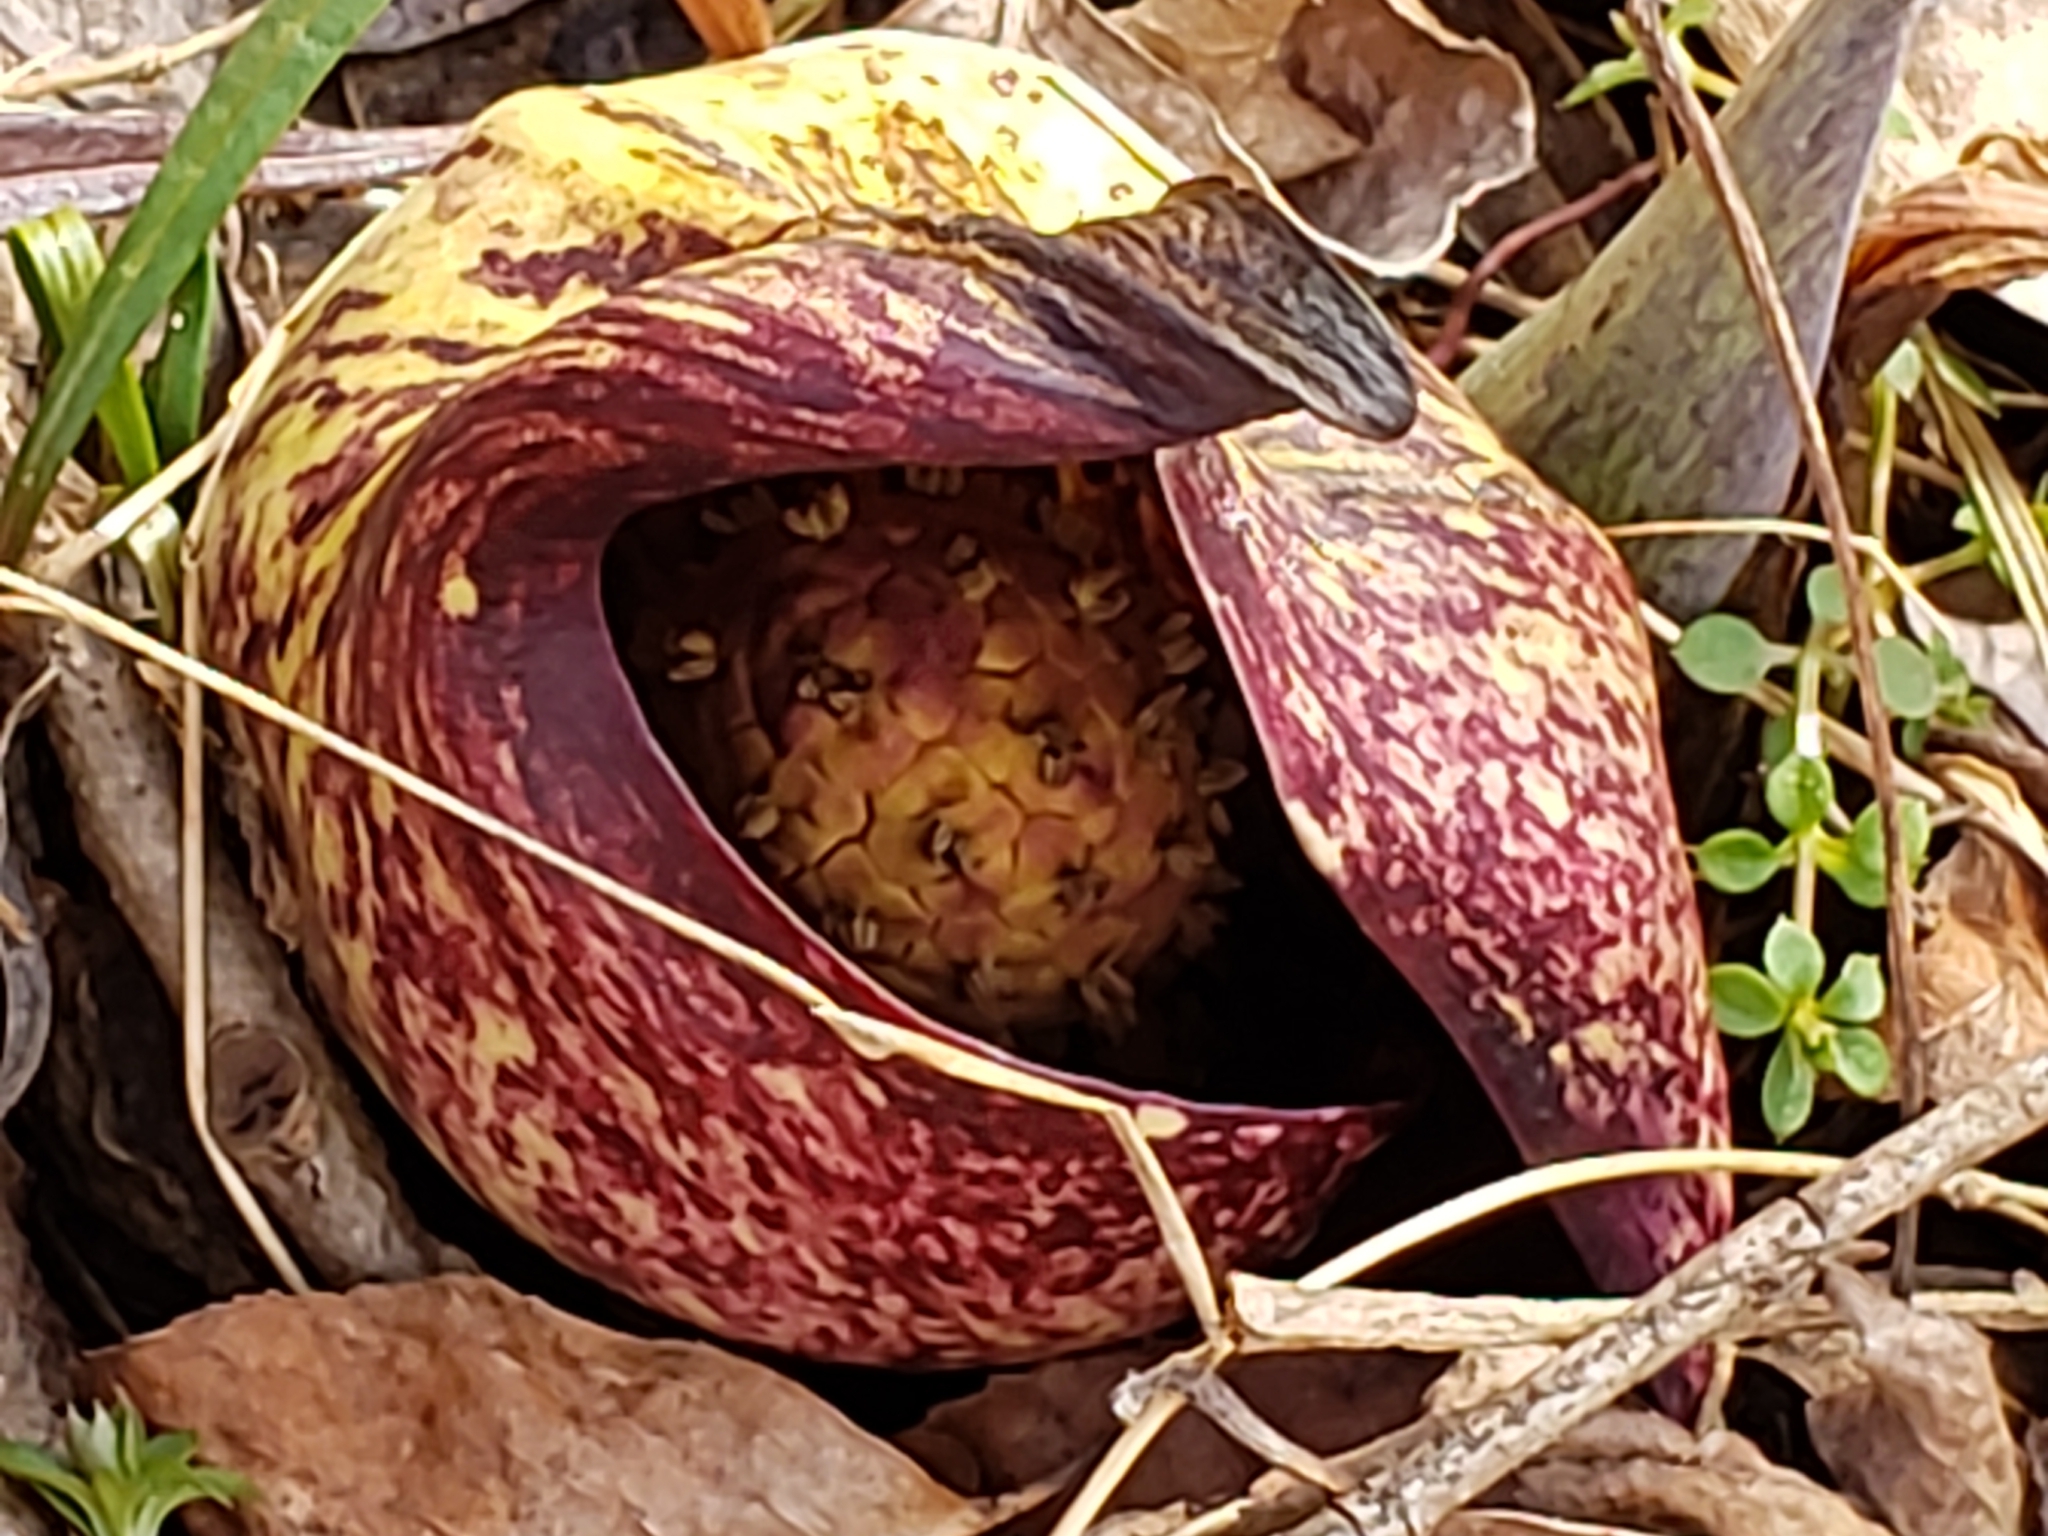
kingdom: Plantae
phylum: Tracheophyta
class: Liliopsida
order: Alismatales
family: Araceae
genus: Symplocarpus
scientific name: Symplocarpus foetidus
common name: Eastern skunk cabbage
